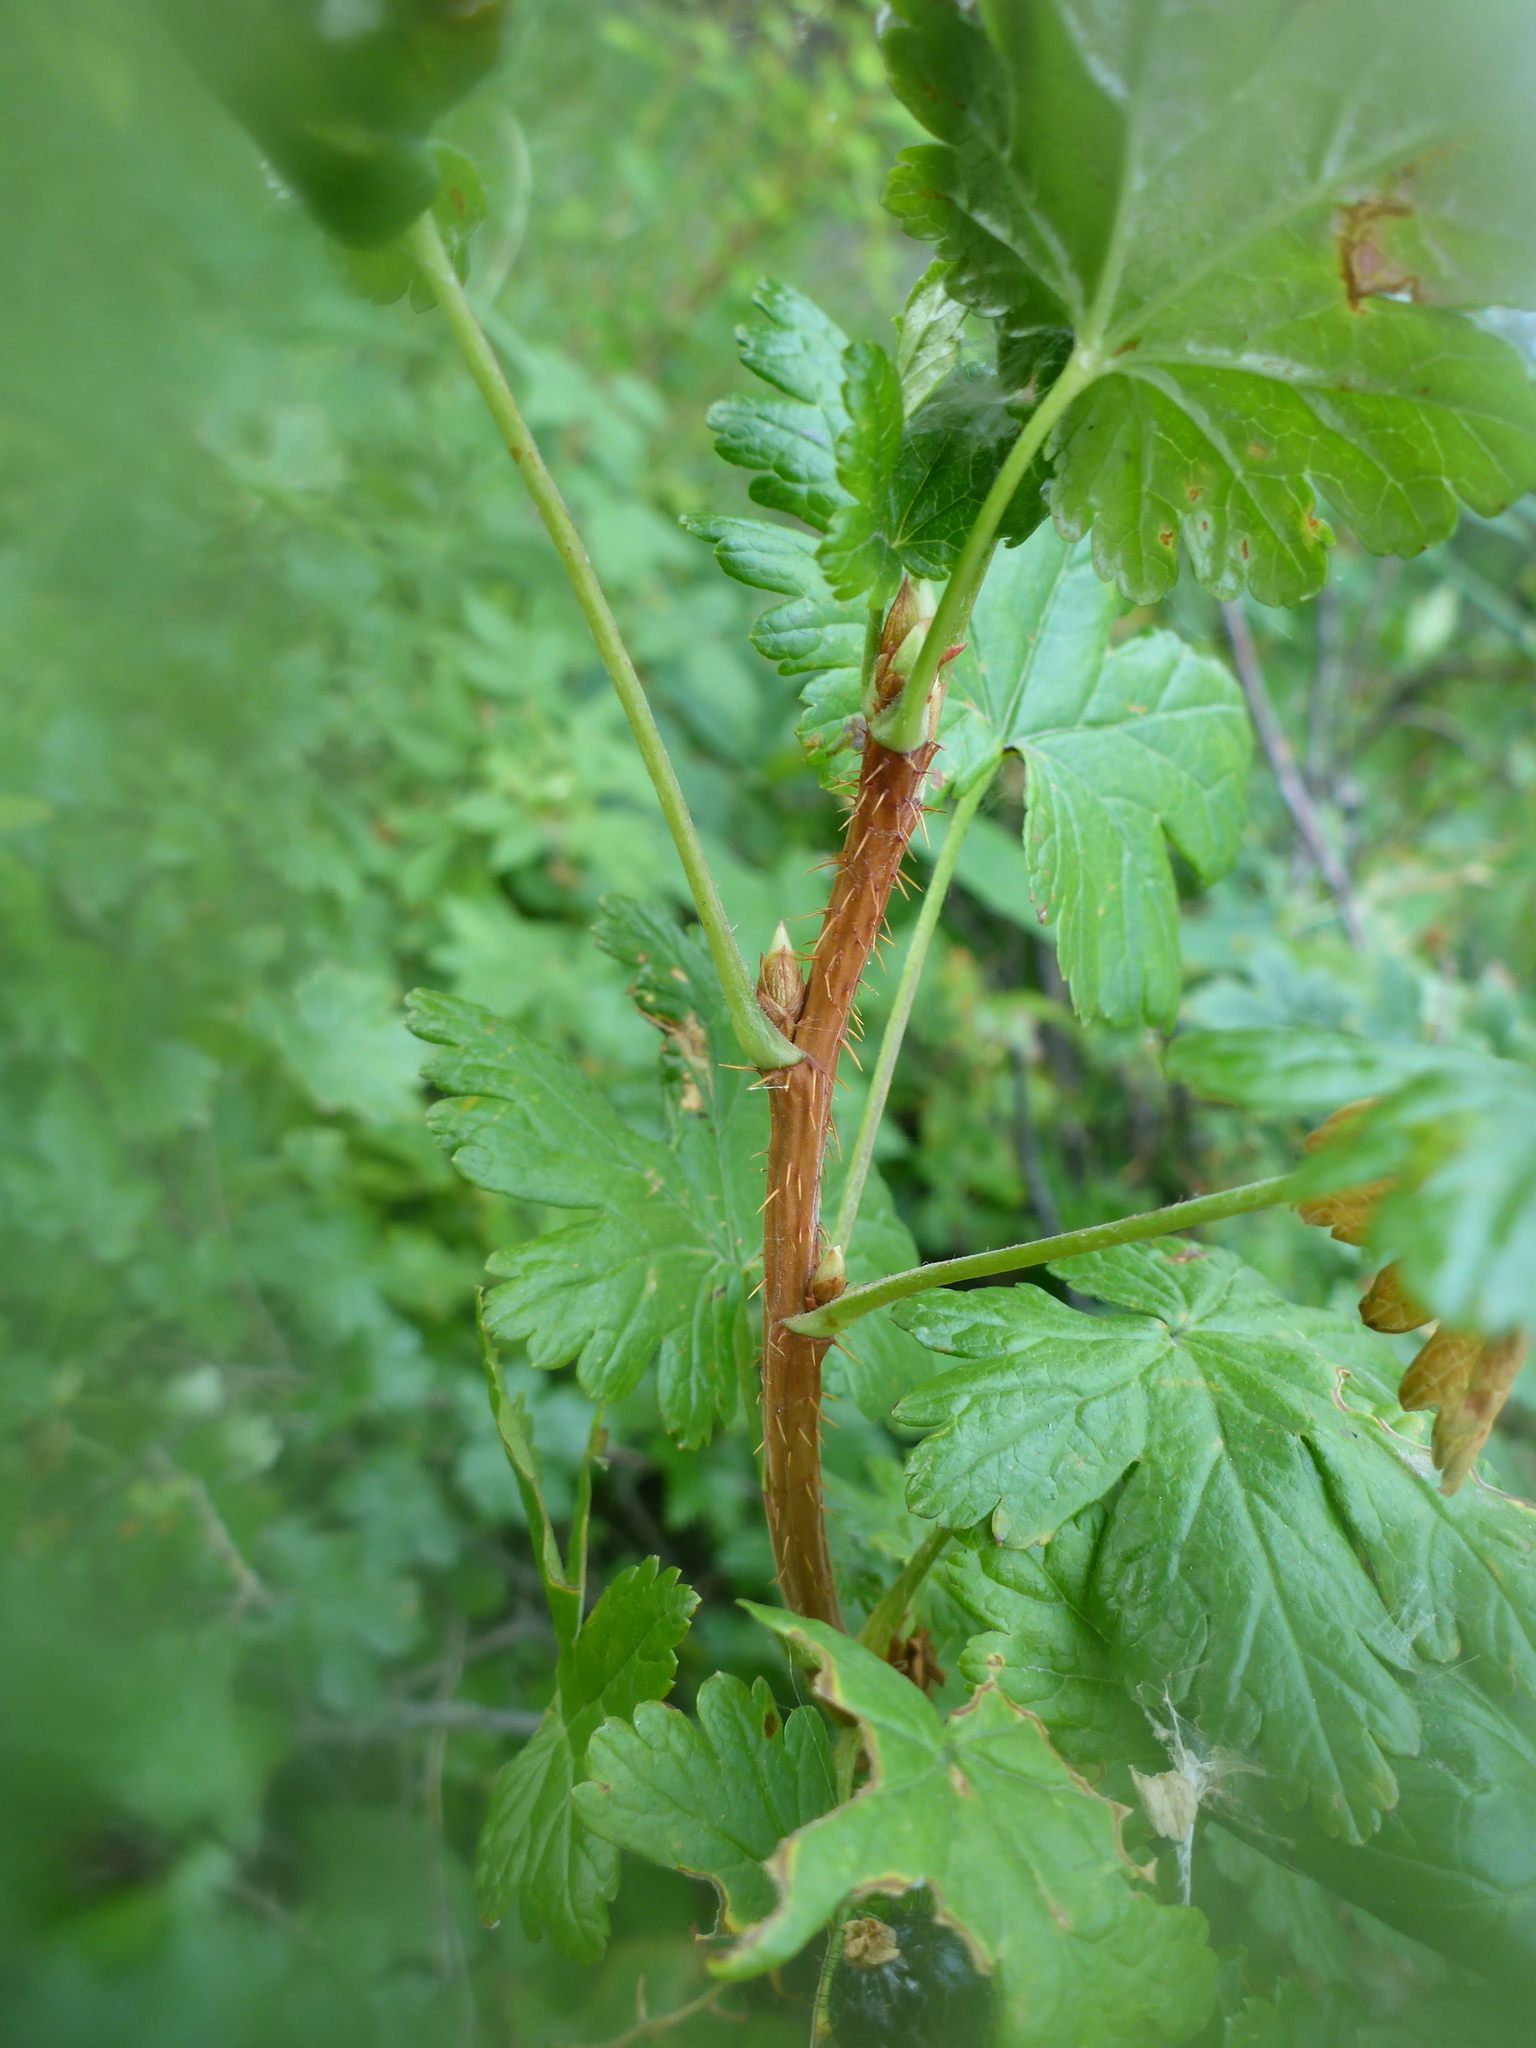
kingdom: Plantae
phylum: Tracheophyta
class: Magnoliopsida
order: Saxifragales
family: Grossulariaceae
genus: Ribes
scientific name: Ribes lacustre
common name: Black gooseberry
